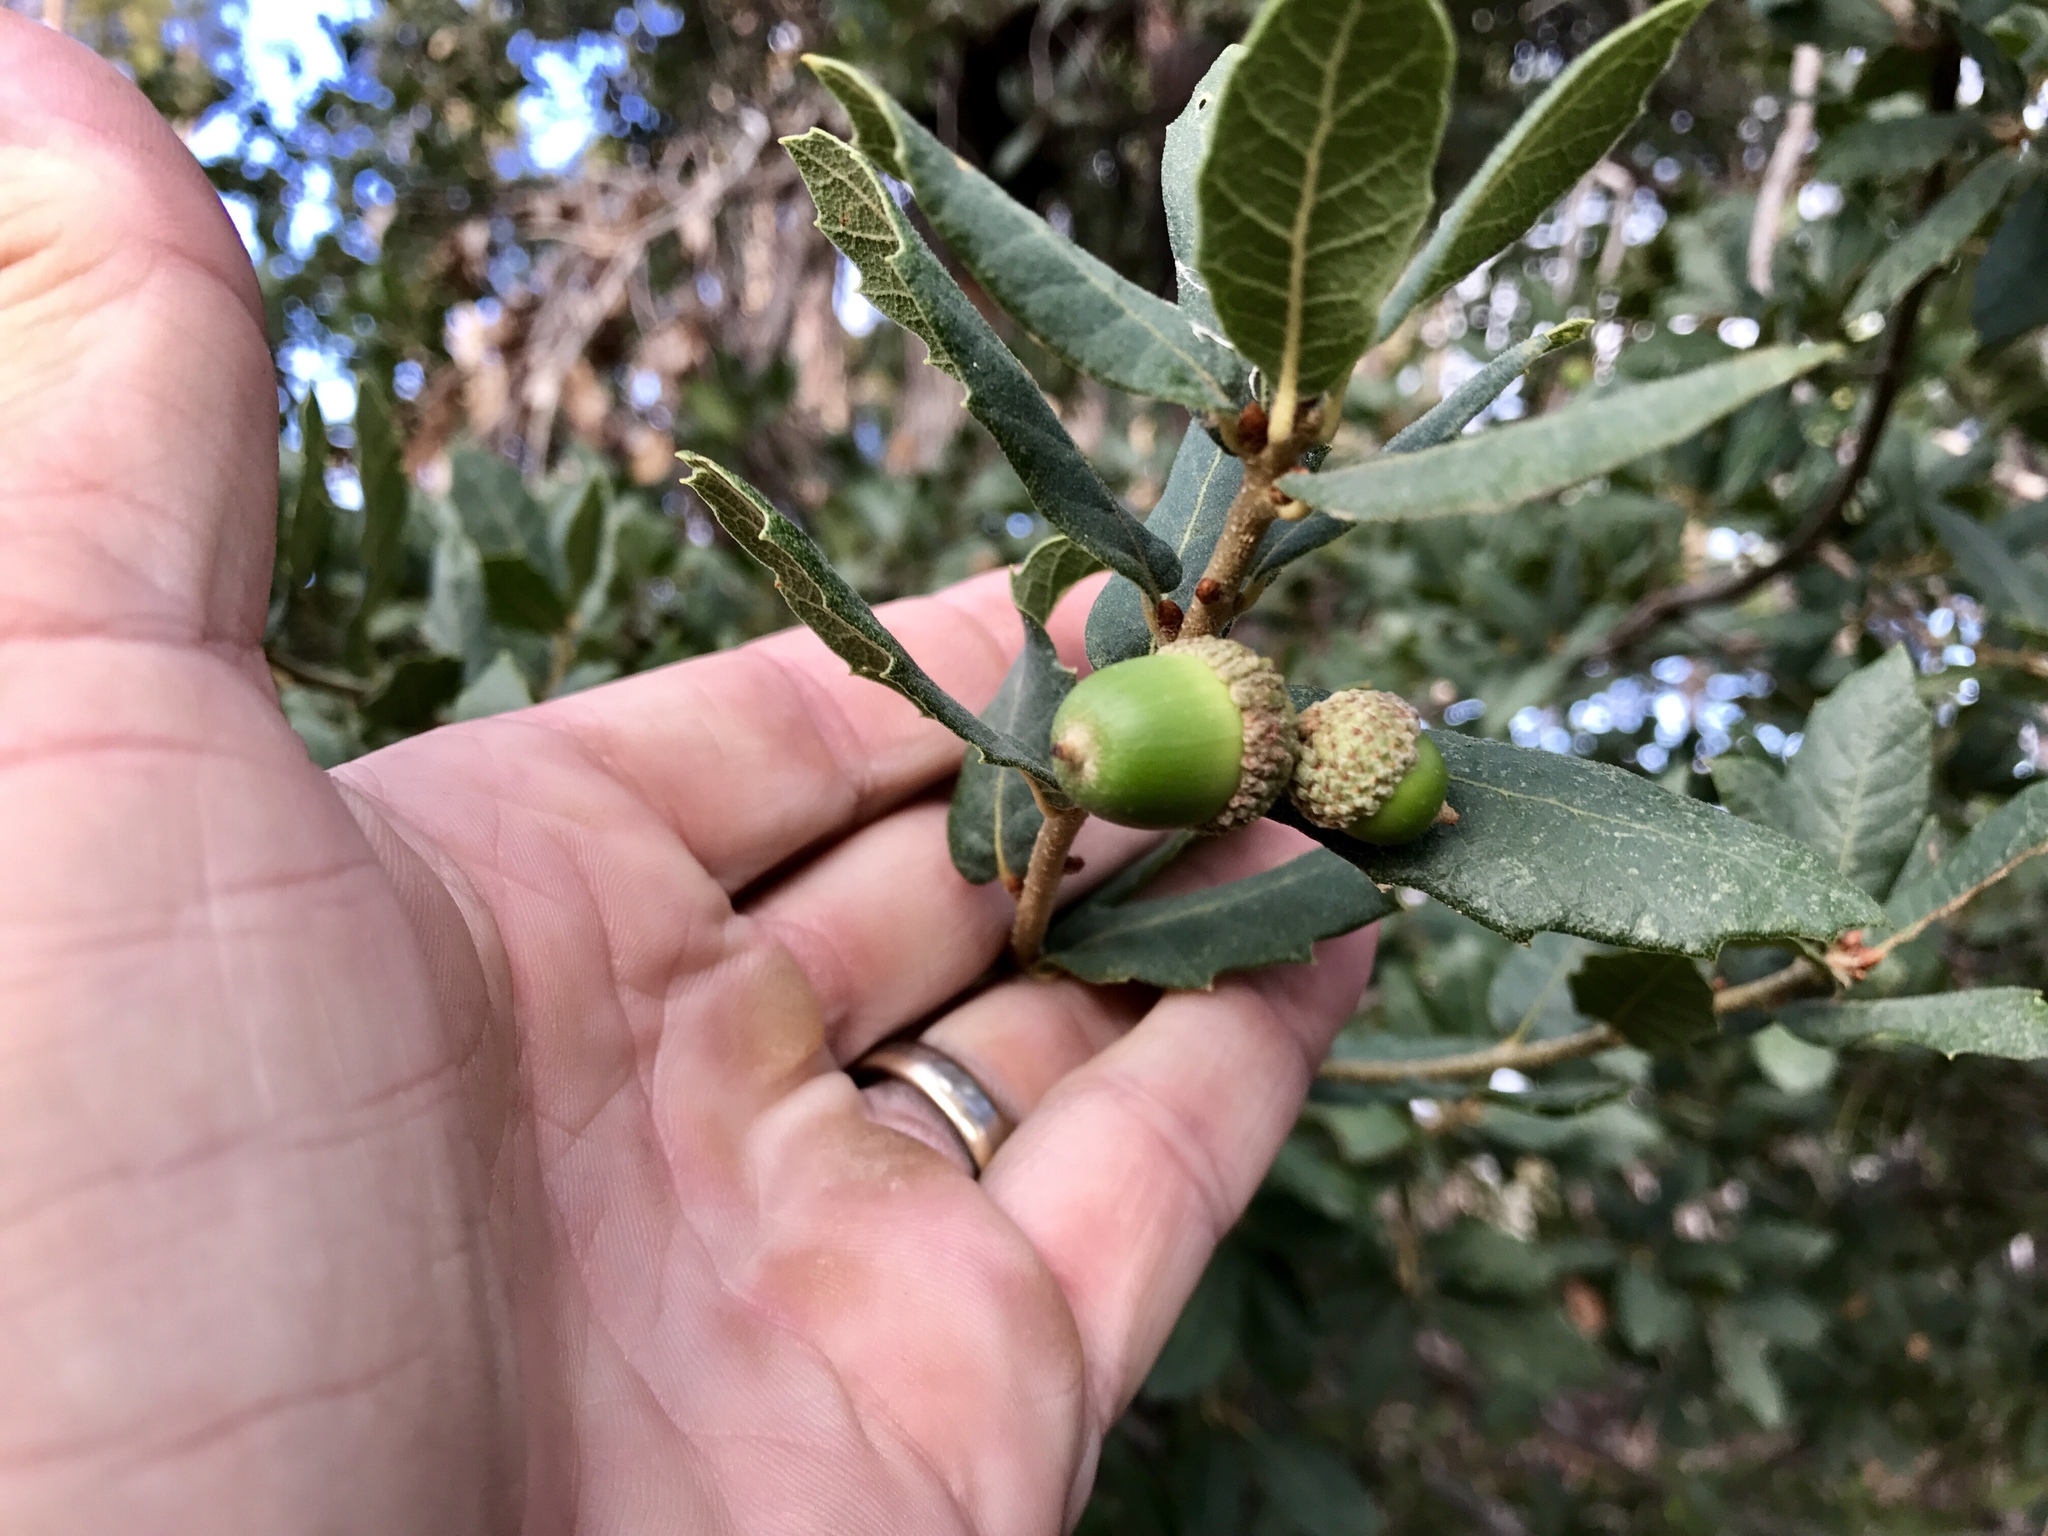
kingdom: Plantae
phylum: Tracheophyta
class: Magnoliopsida
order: Fagales
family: Fagaceae
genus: Quercus
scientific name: Quercus arizonica
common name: Arizona white oak
